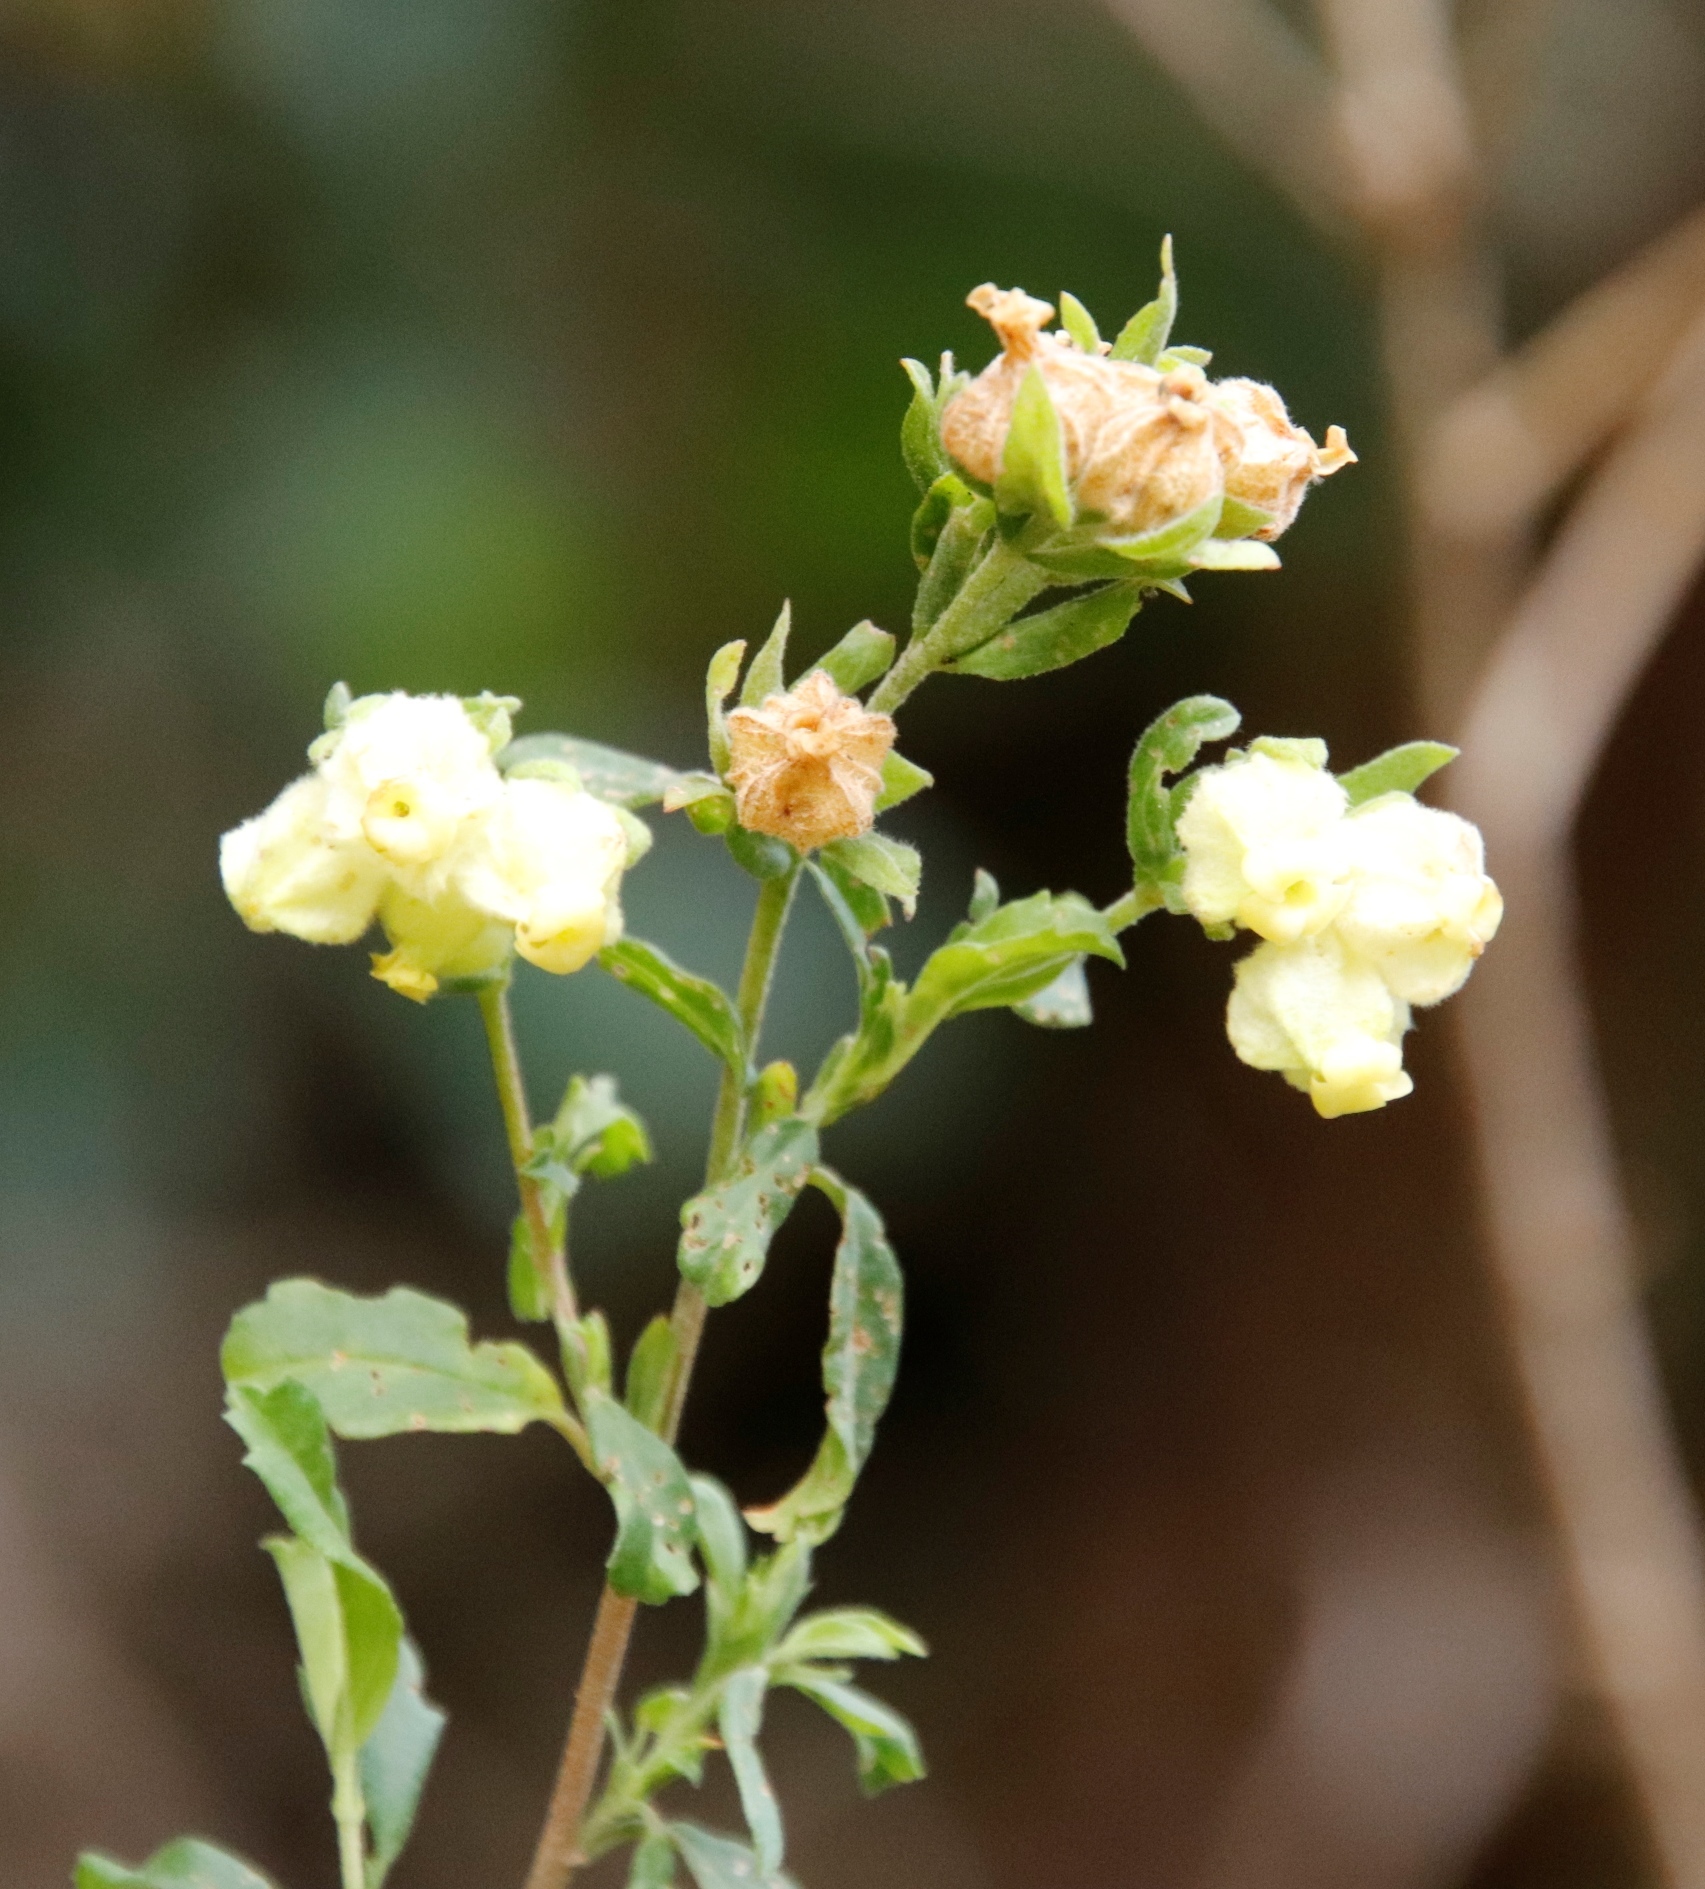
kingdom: Plantae
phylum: Tracheophyta
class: Magnoliopsida
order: Malvales
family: Malvaceae
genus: Hermannia
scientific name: Hermannia hyssopifolia
